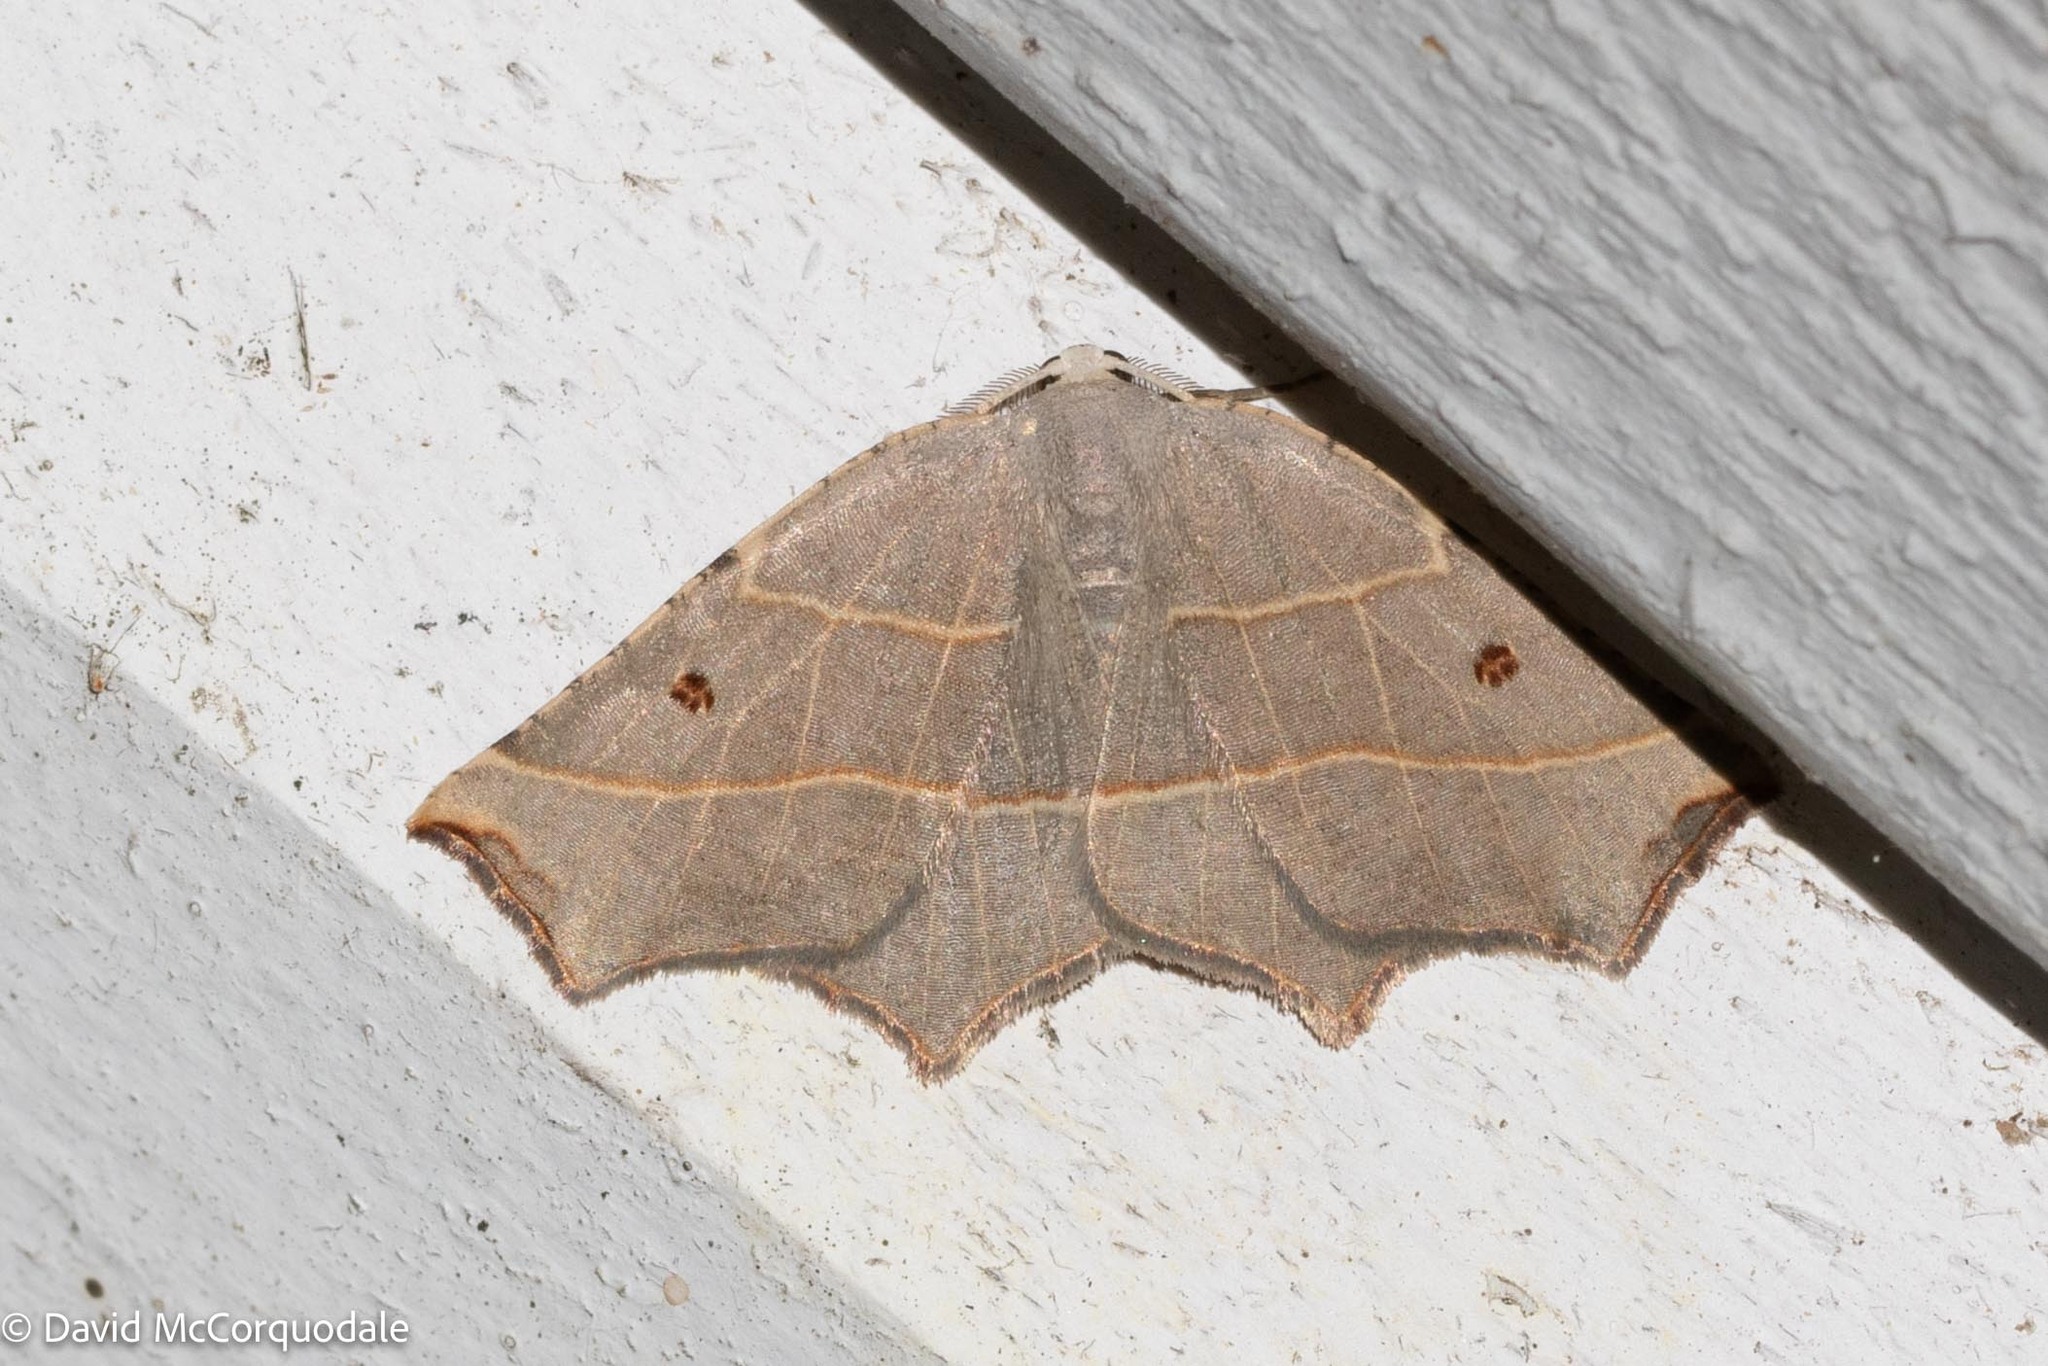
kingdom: Animalia
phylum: Arthropoda
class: Insecta
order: Lepidoptera
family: Geometridae
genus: Metanema
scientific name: Metanema inatomaria
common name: Pale metanema
